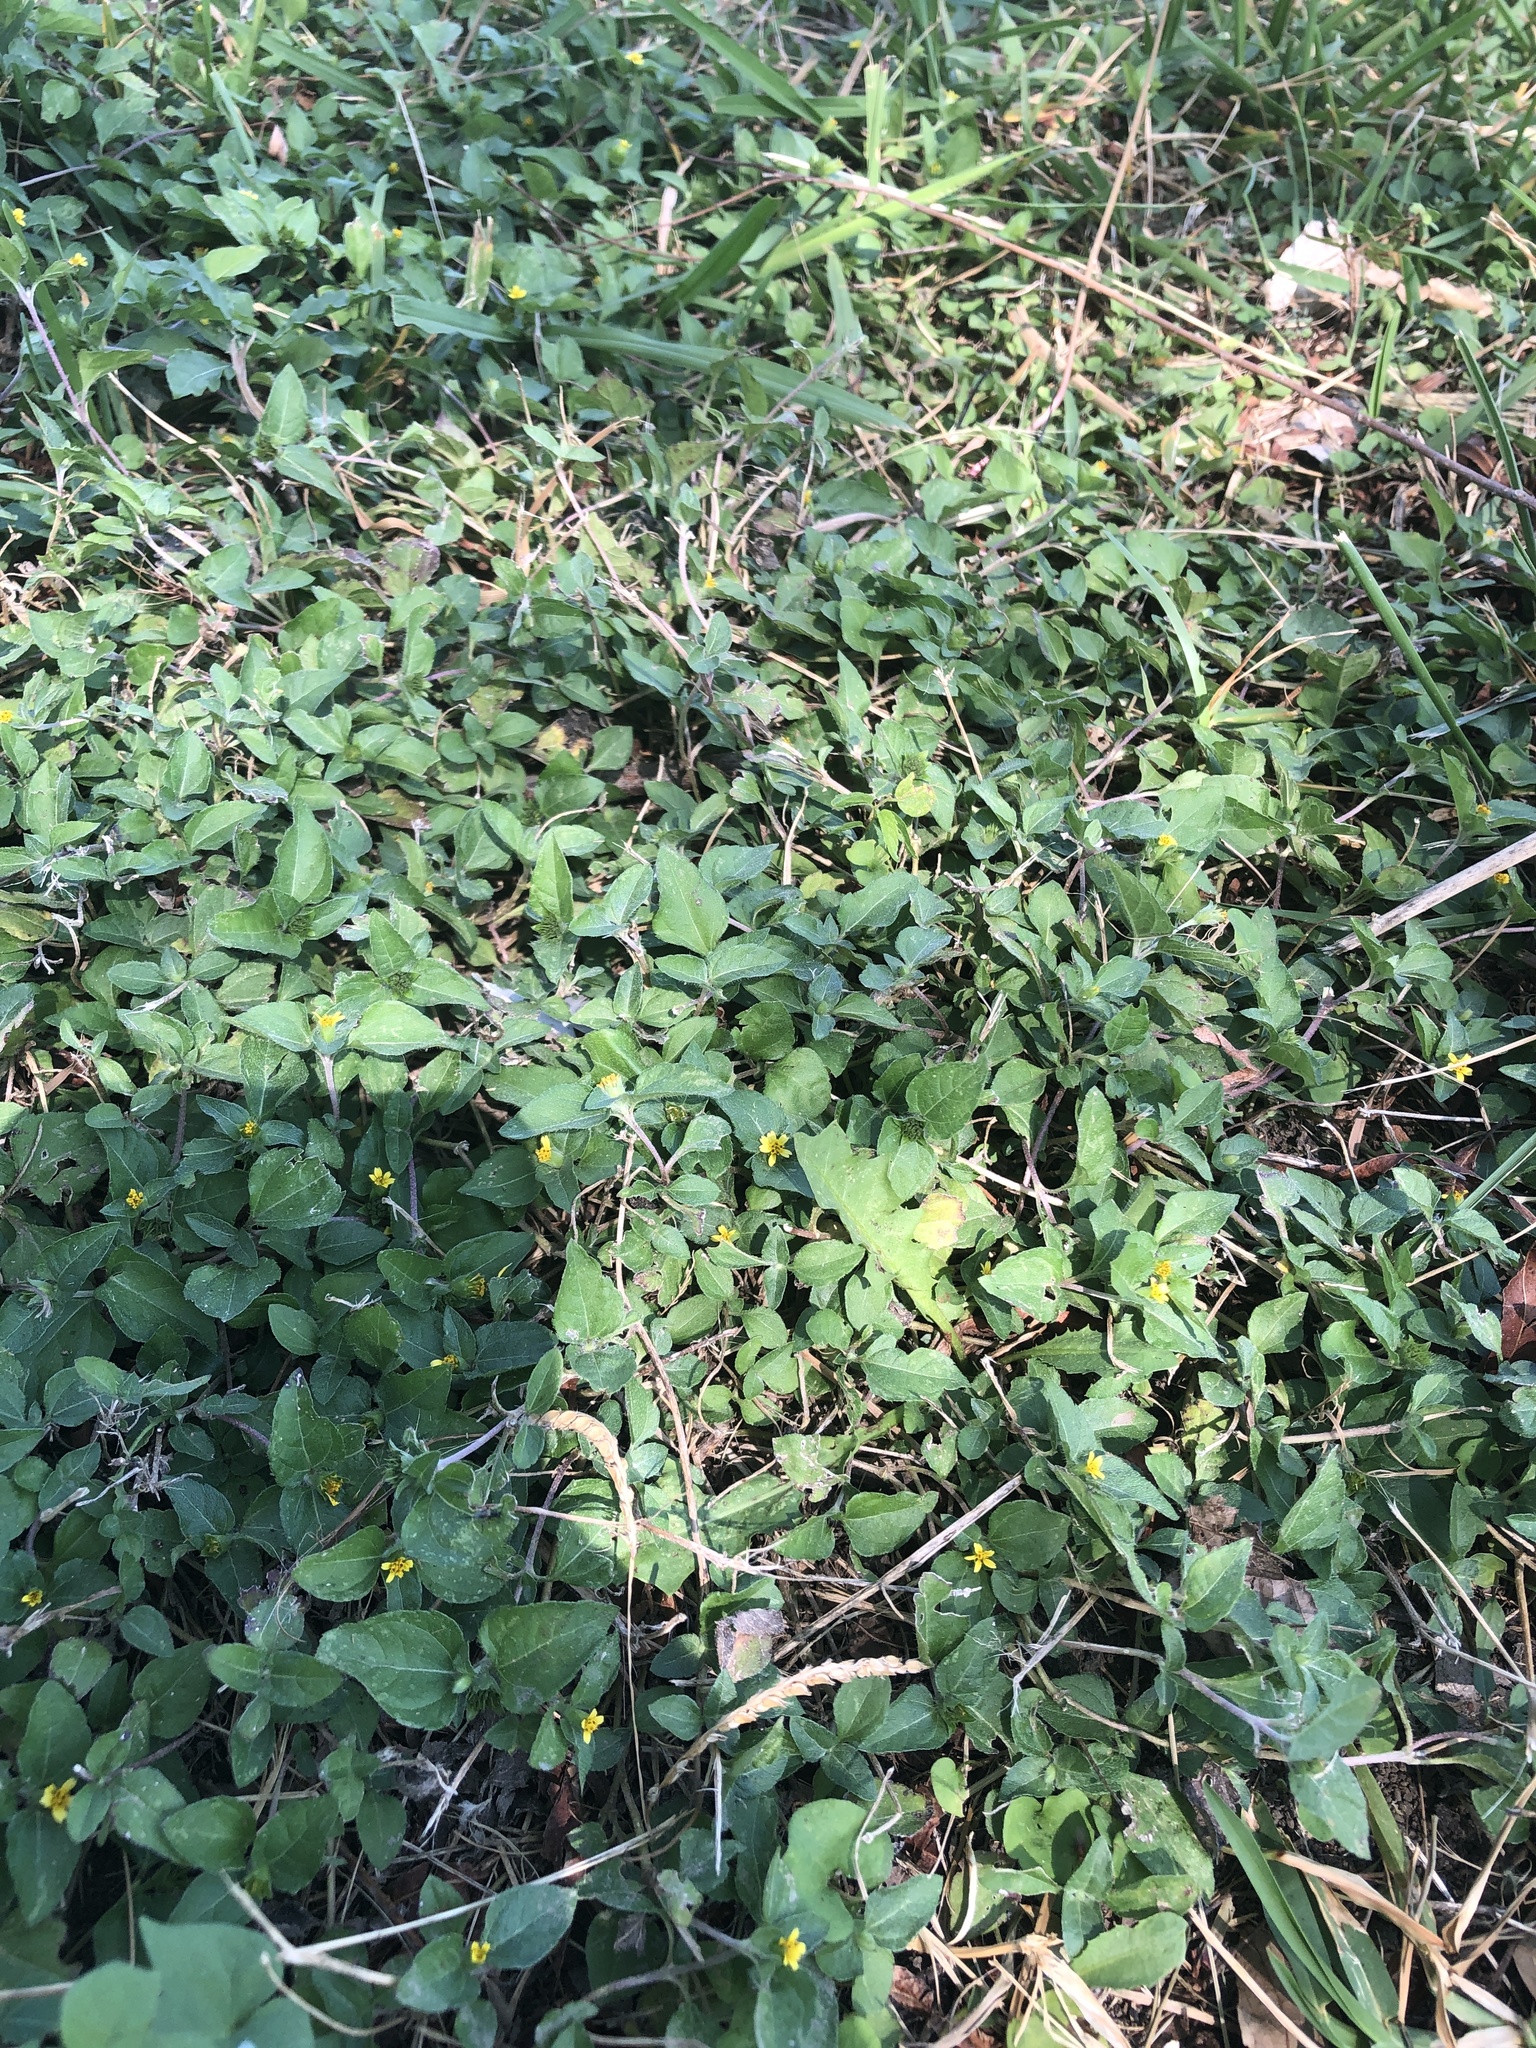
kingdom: Plantae
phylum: Tracheophyta
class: Magnoliopsida
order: Asterales
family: Asteraceae
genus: Calyptocarpus
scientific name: Calyptocarpus vialis
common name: Straggler daisy
